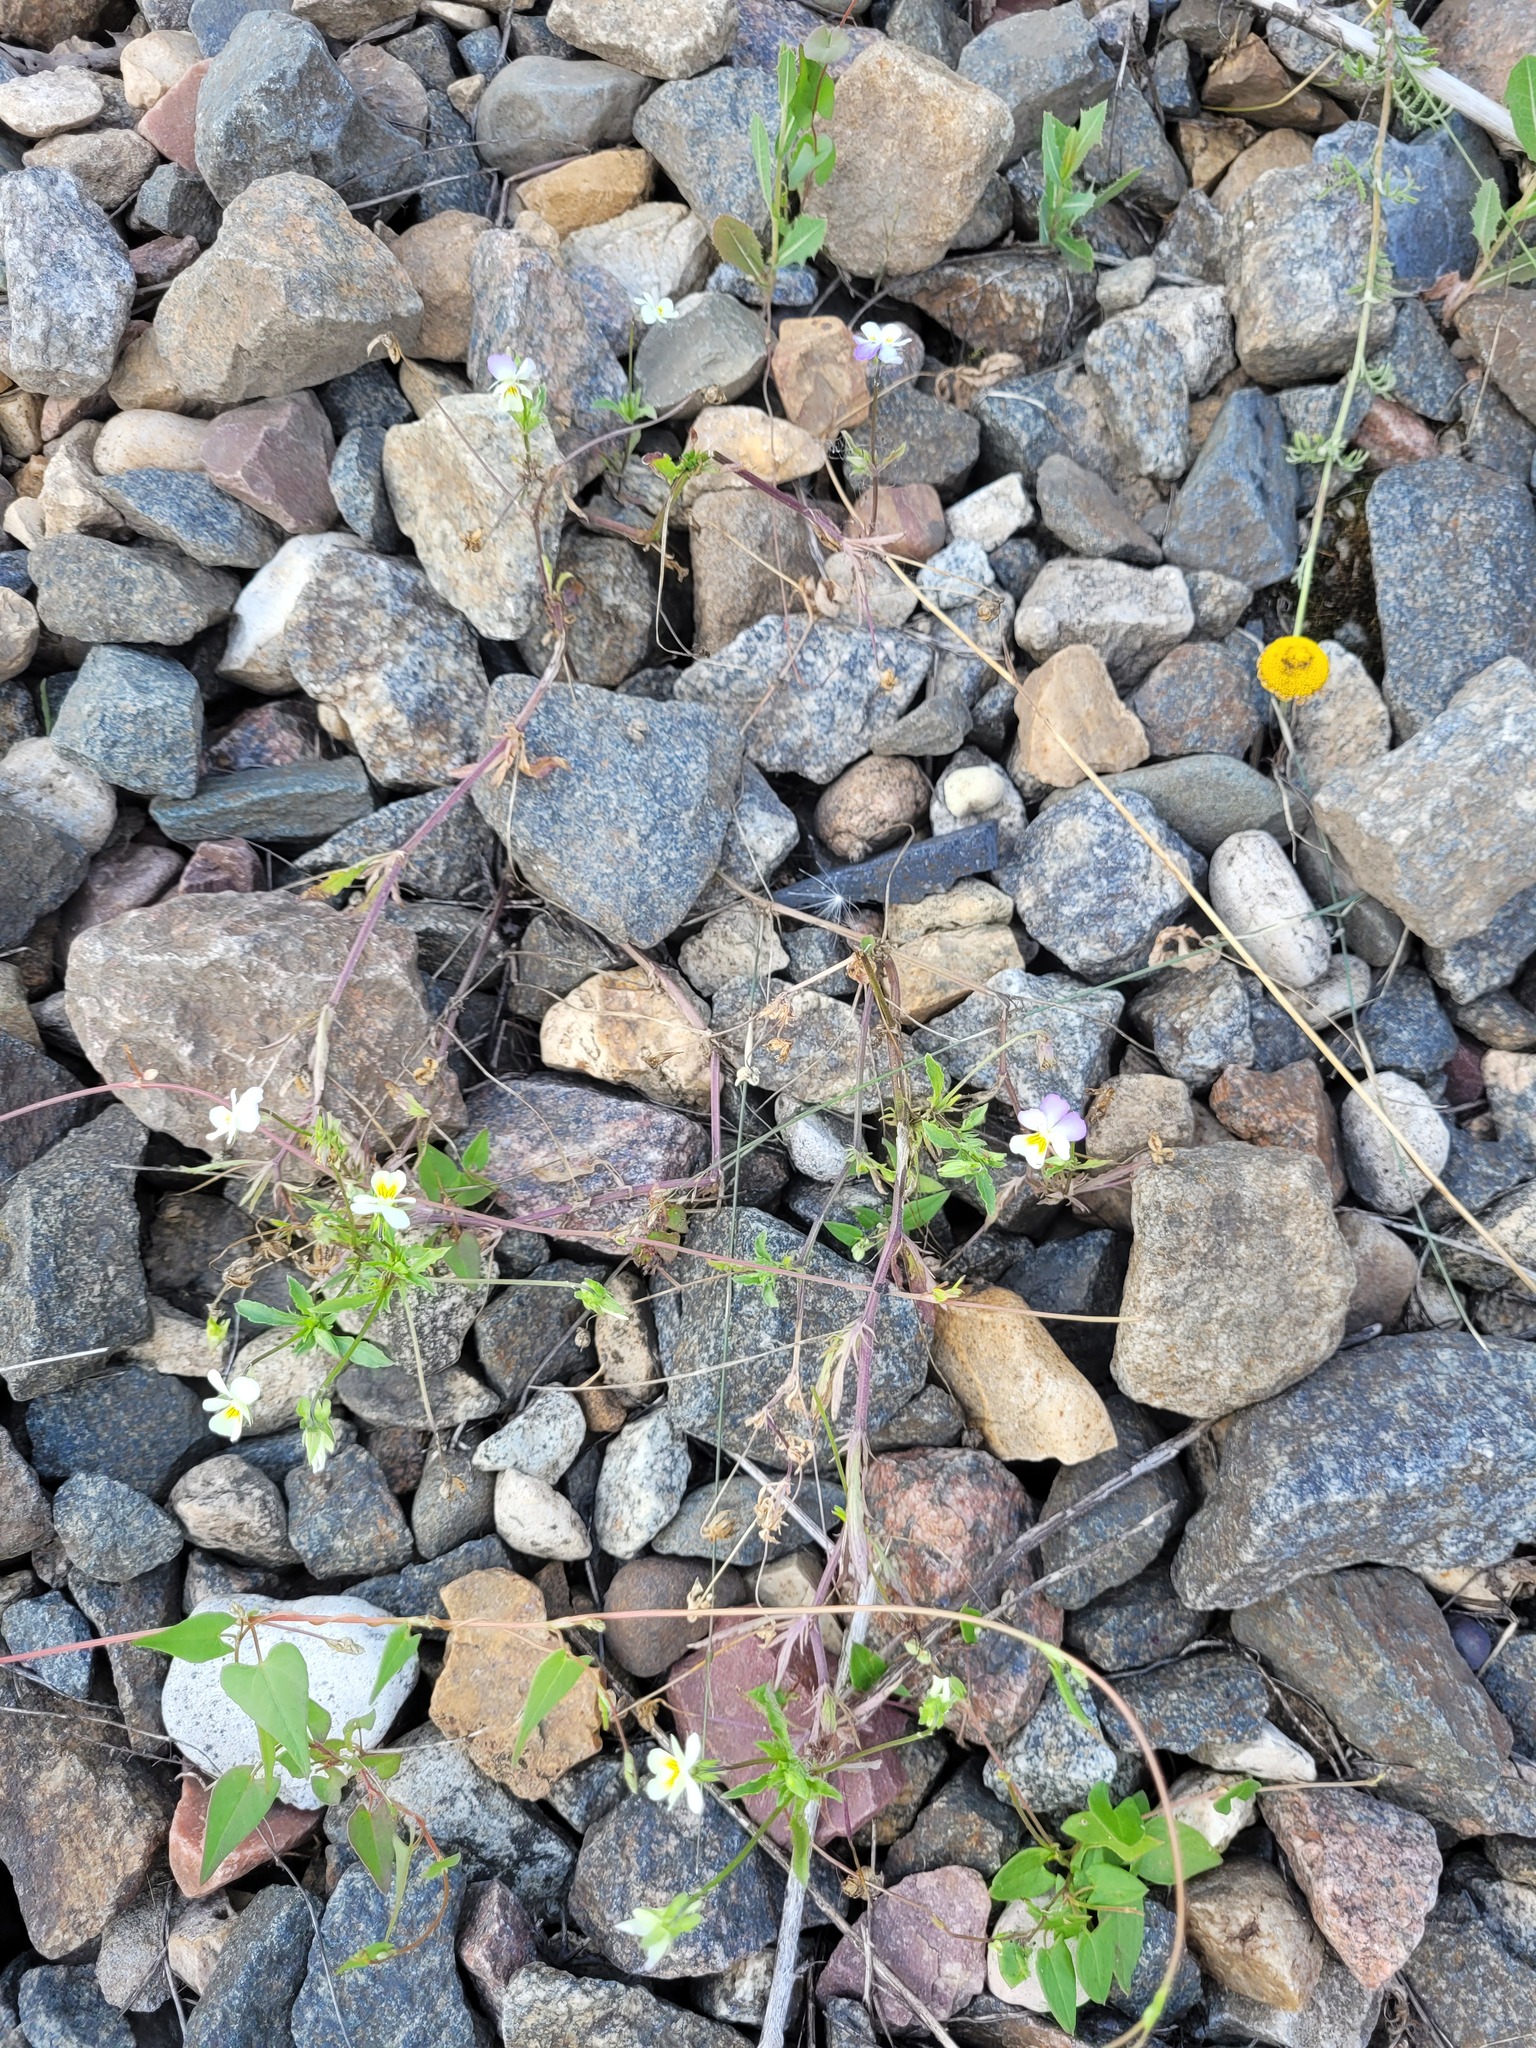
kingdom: Plantae
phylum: Tracheophyta
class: Magnoliopsida
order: Malpighiales
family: Violaceae
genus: Viola
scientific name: Viola contempta
